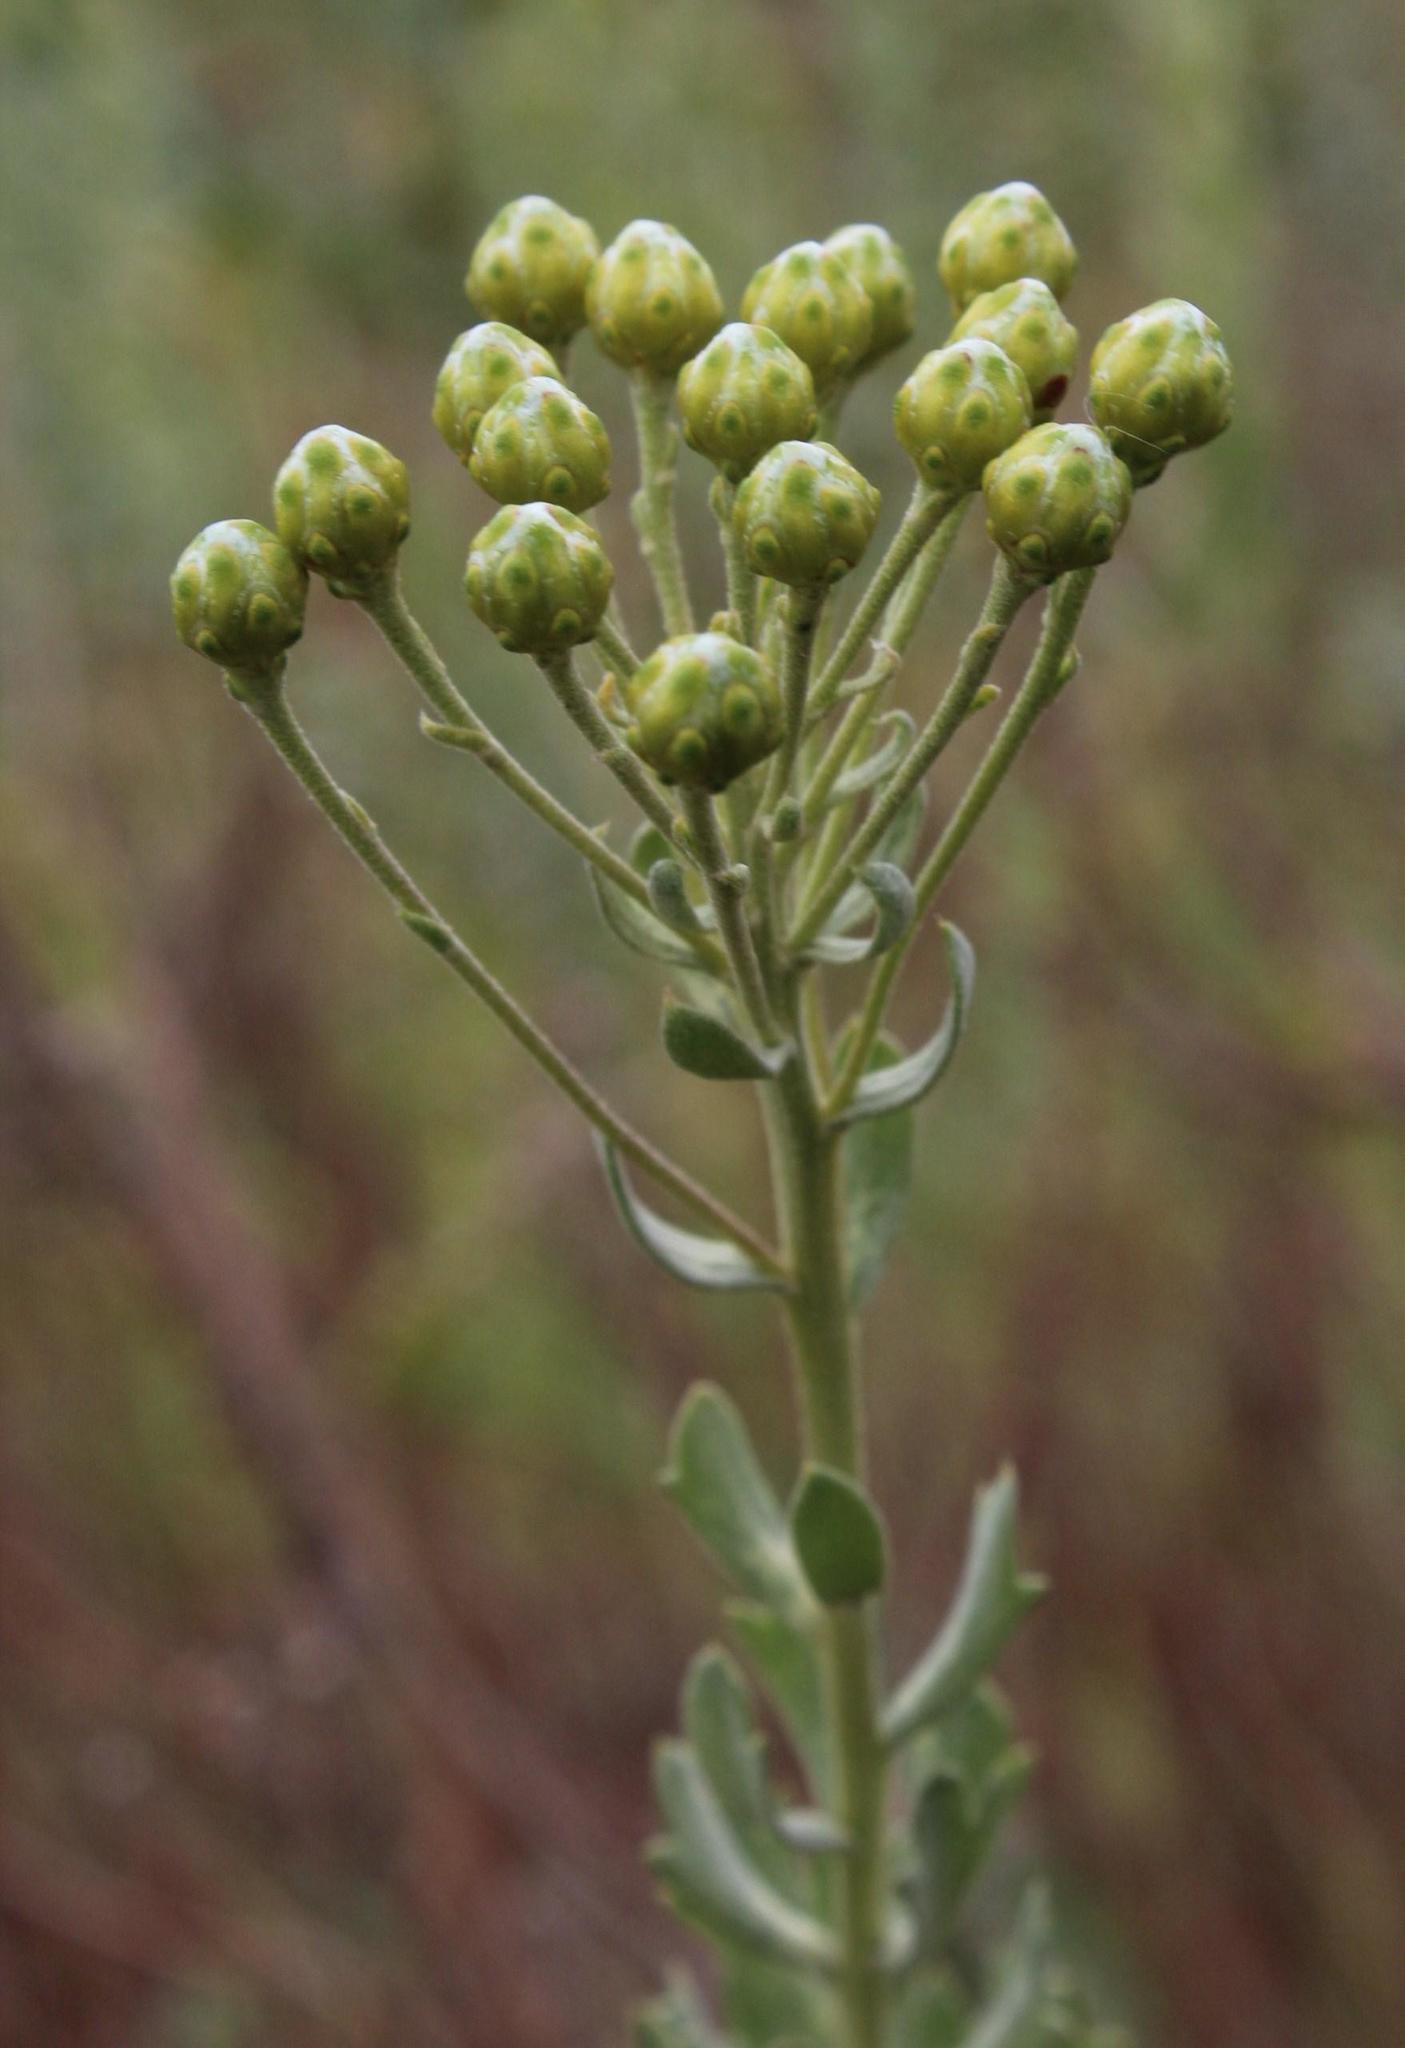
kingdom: Plantae
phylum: Tracheophyta
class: Magnoliopsida
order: Asterales
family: Asteraceae
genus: Athanasia
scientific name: Athanasia trifurcata
